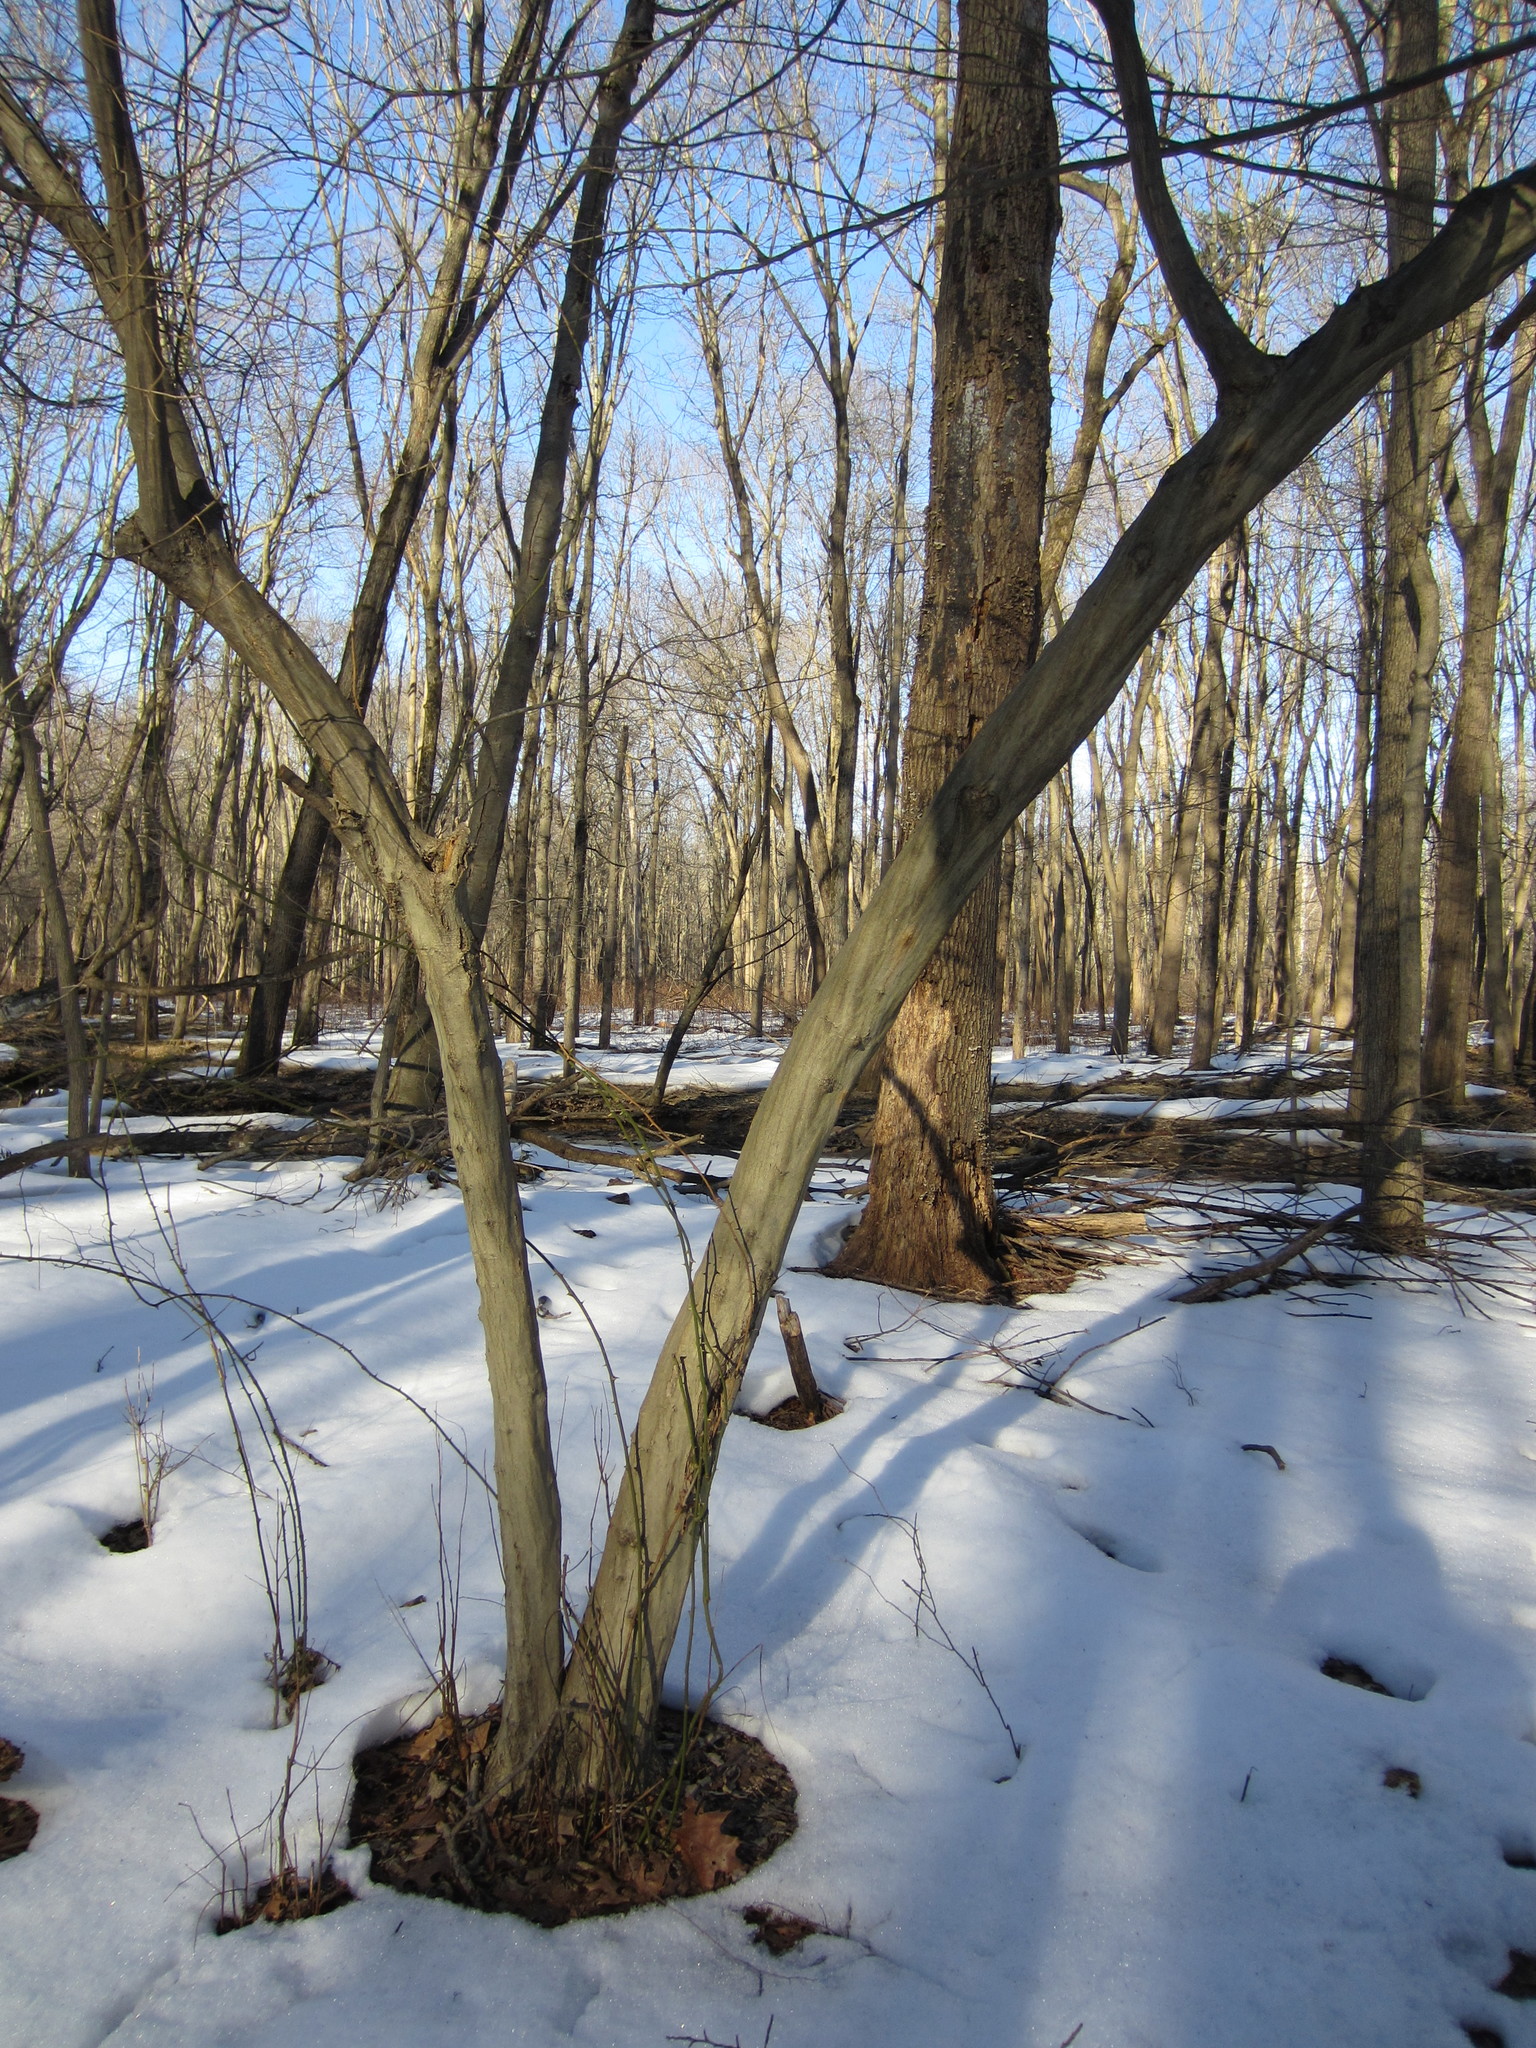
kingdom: Plantae
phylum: Tracheophyta
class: Magnoliopsida
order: Fagales
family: Betulaceae
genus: Carpinus
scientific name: Carpinus caroliniana
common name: American hornbeam
